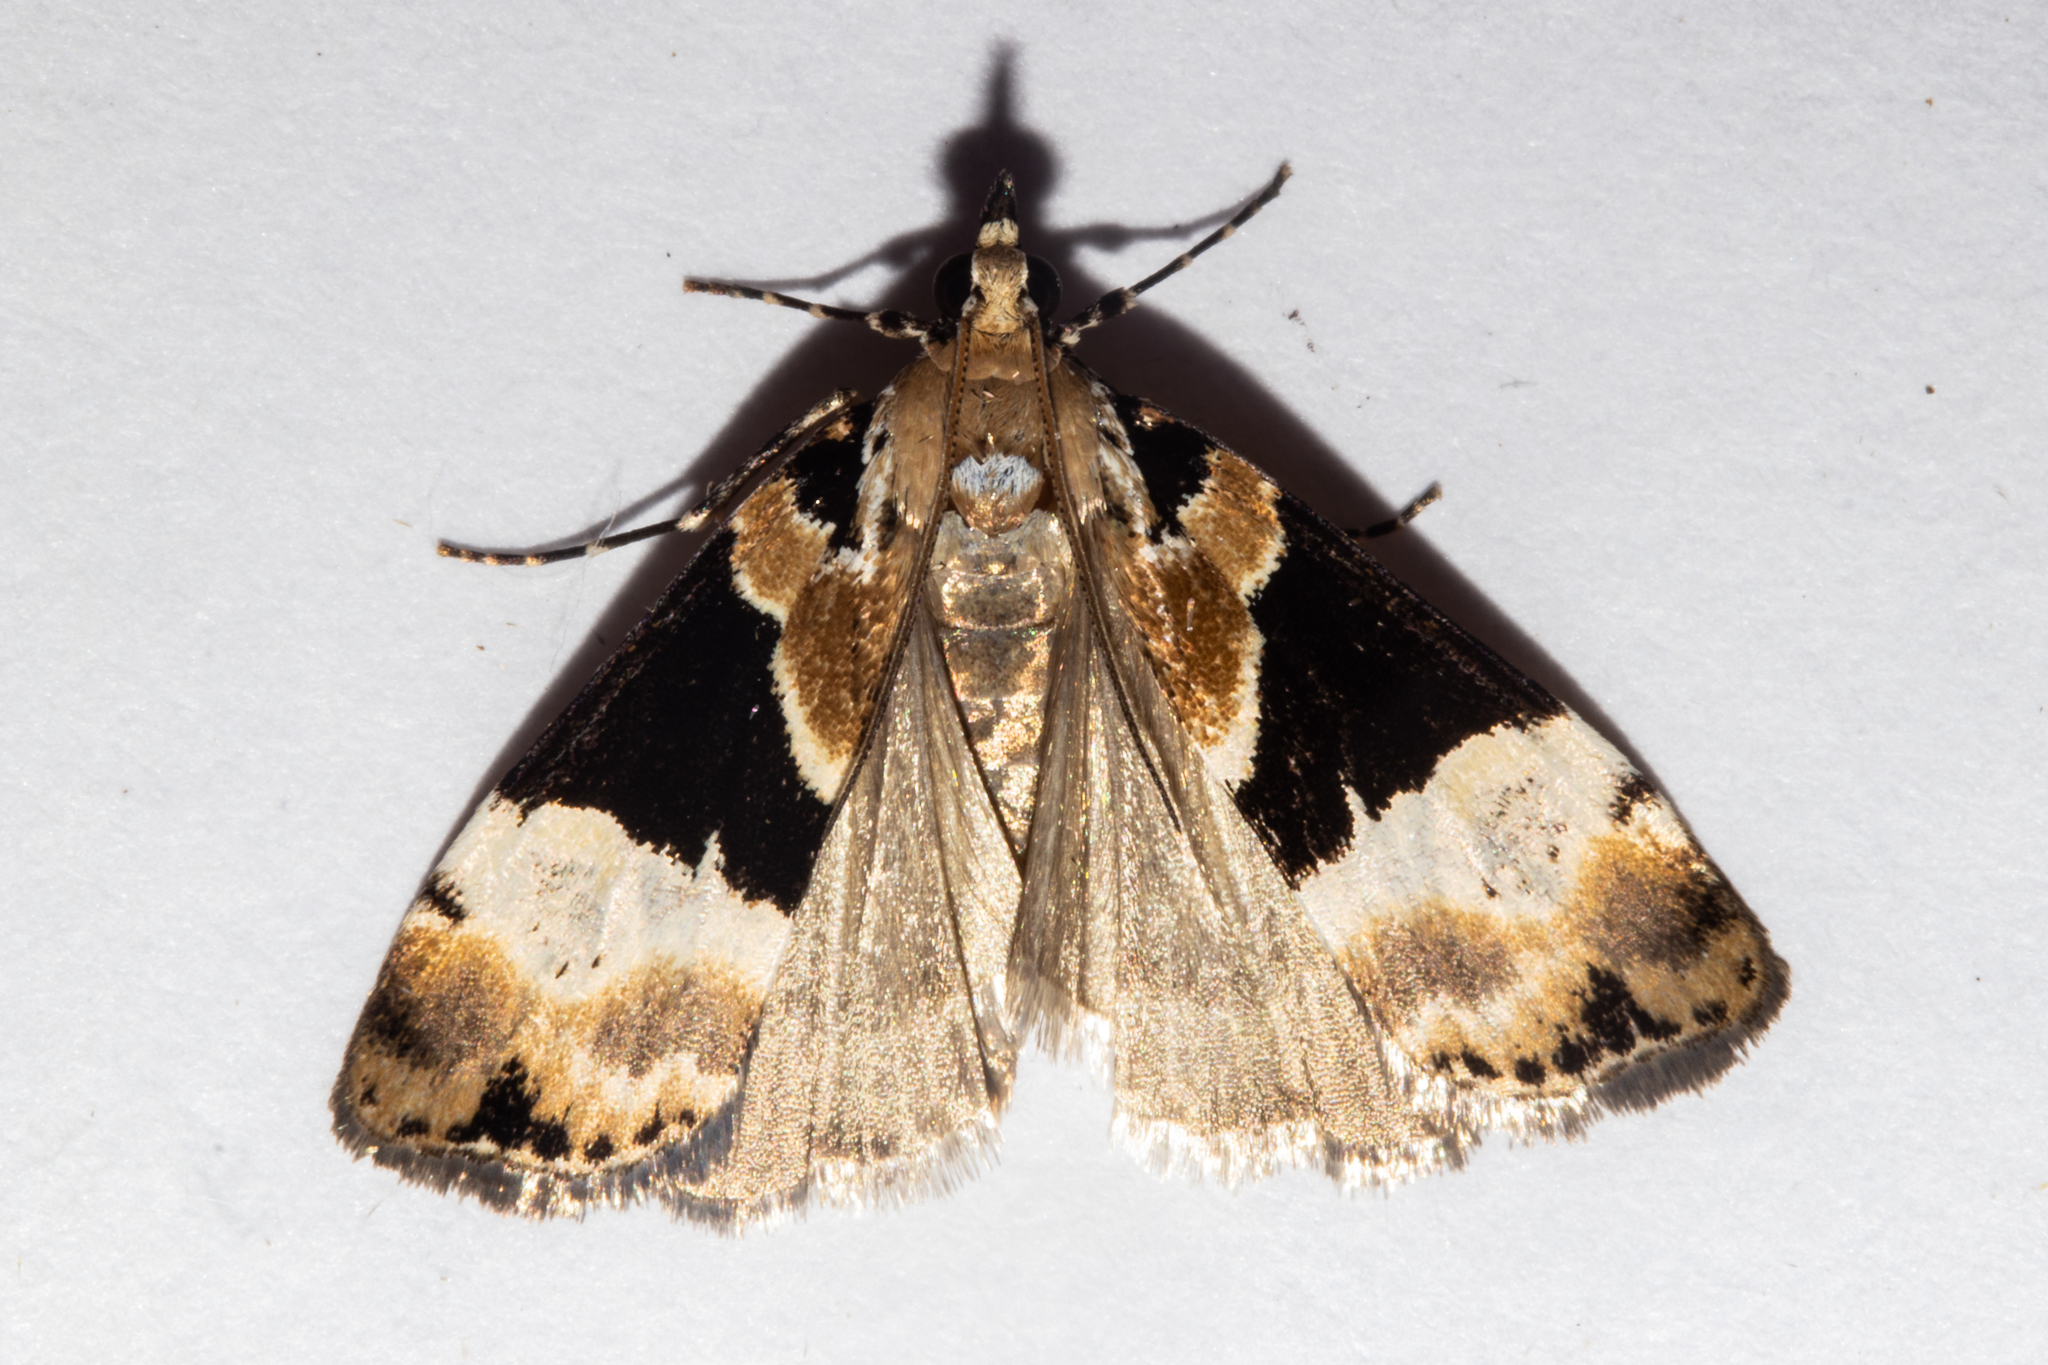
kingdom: Animalia
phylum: Arthropoda
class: Insecta
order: Lepidoptera
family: Crambidae
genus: Eudonia
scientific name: Eudonia aspidota
